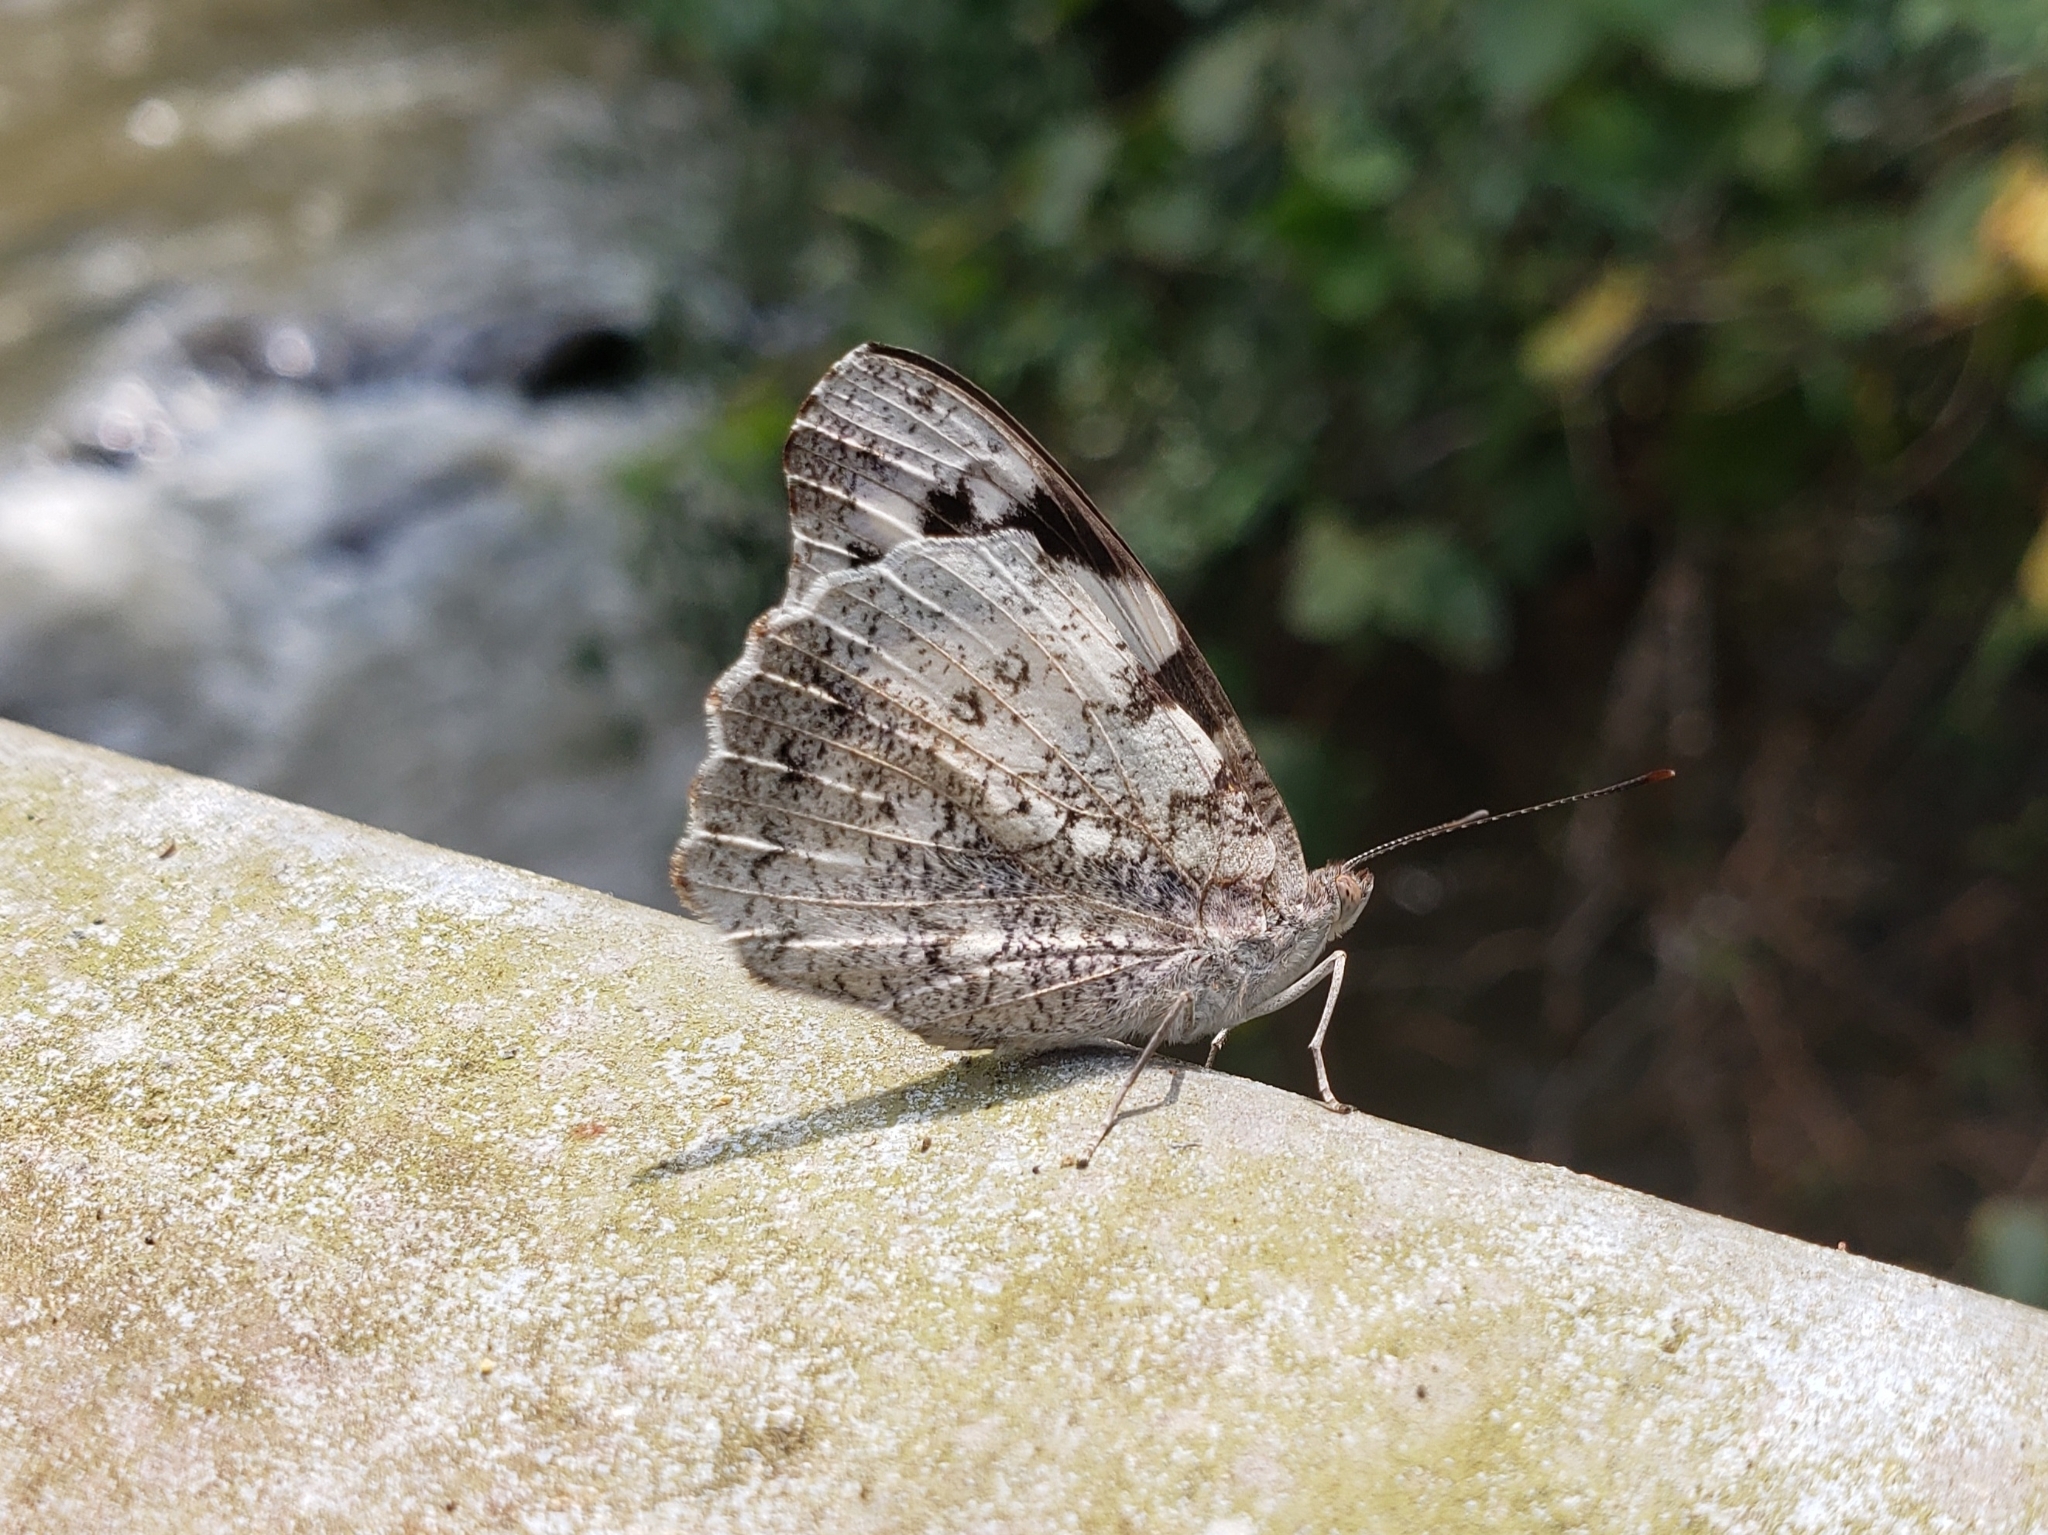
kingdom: Animalia
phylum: Arthropoda
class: Insecta
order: Lepidoptera
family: Nymphalidae
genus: Eunica
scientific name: Eunica eburnea
